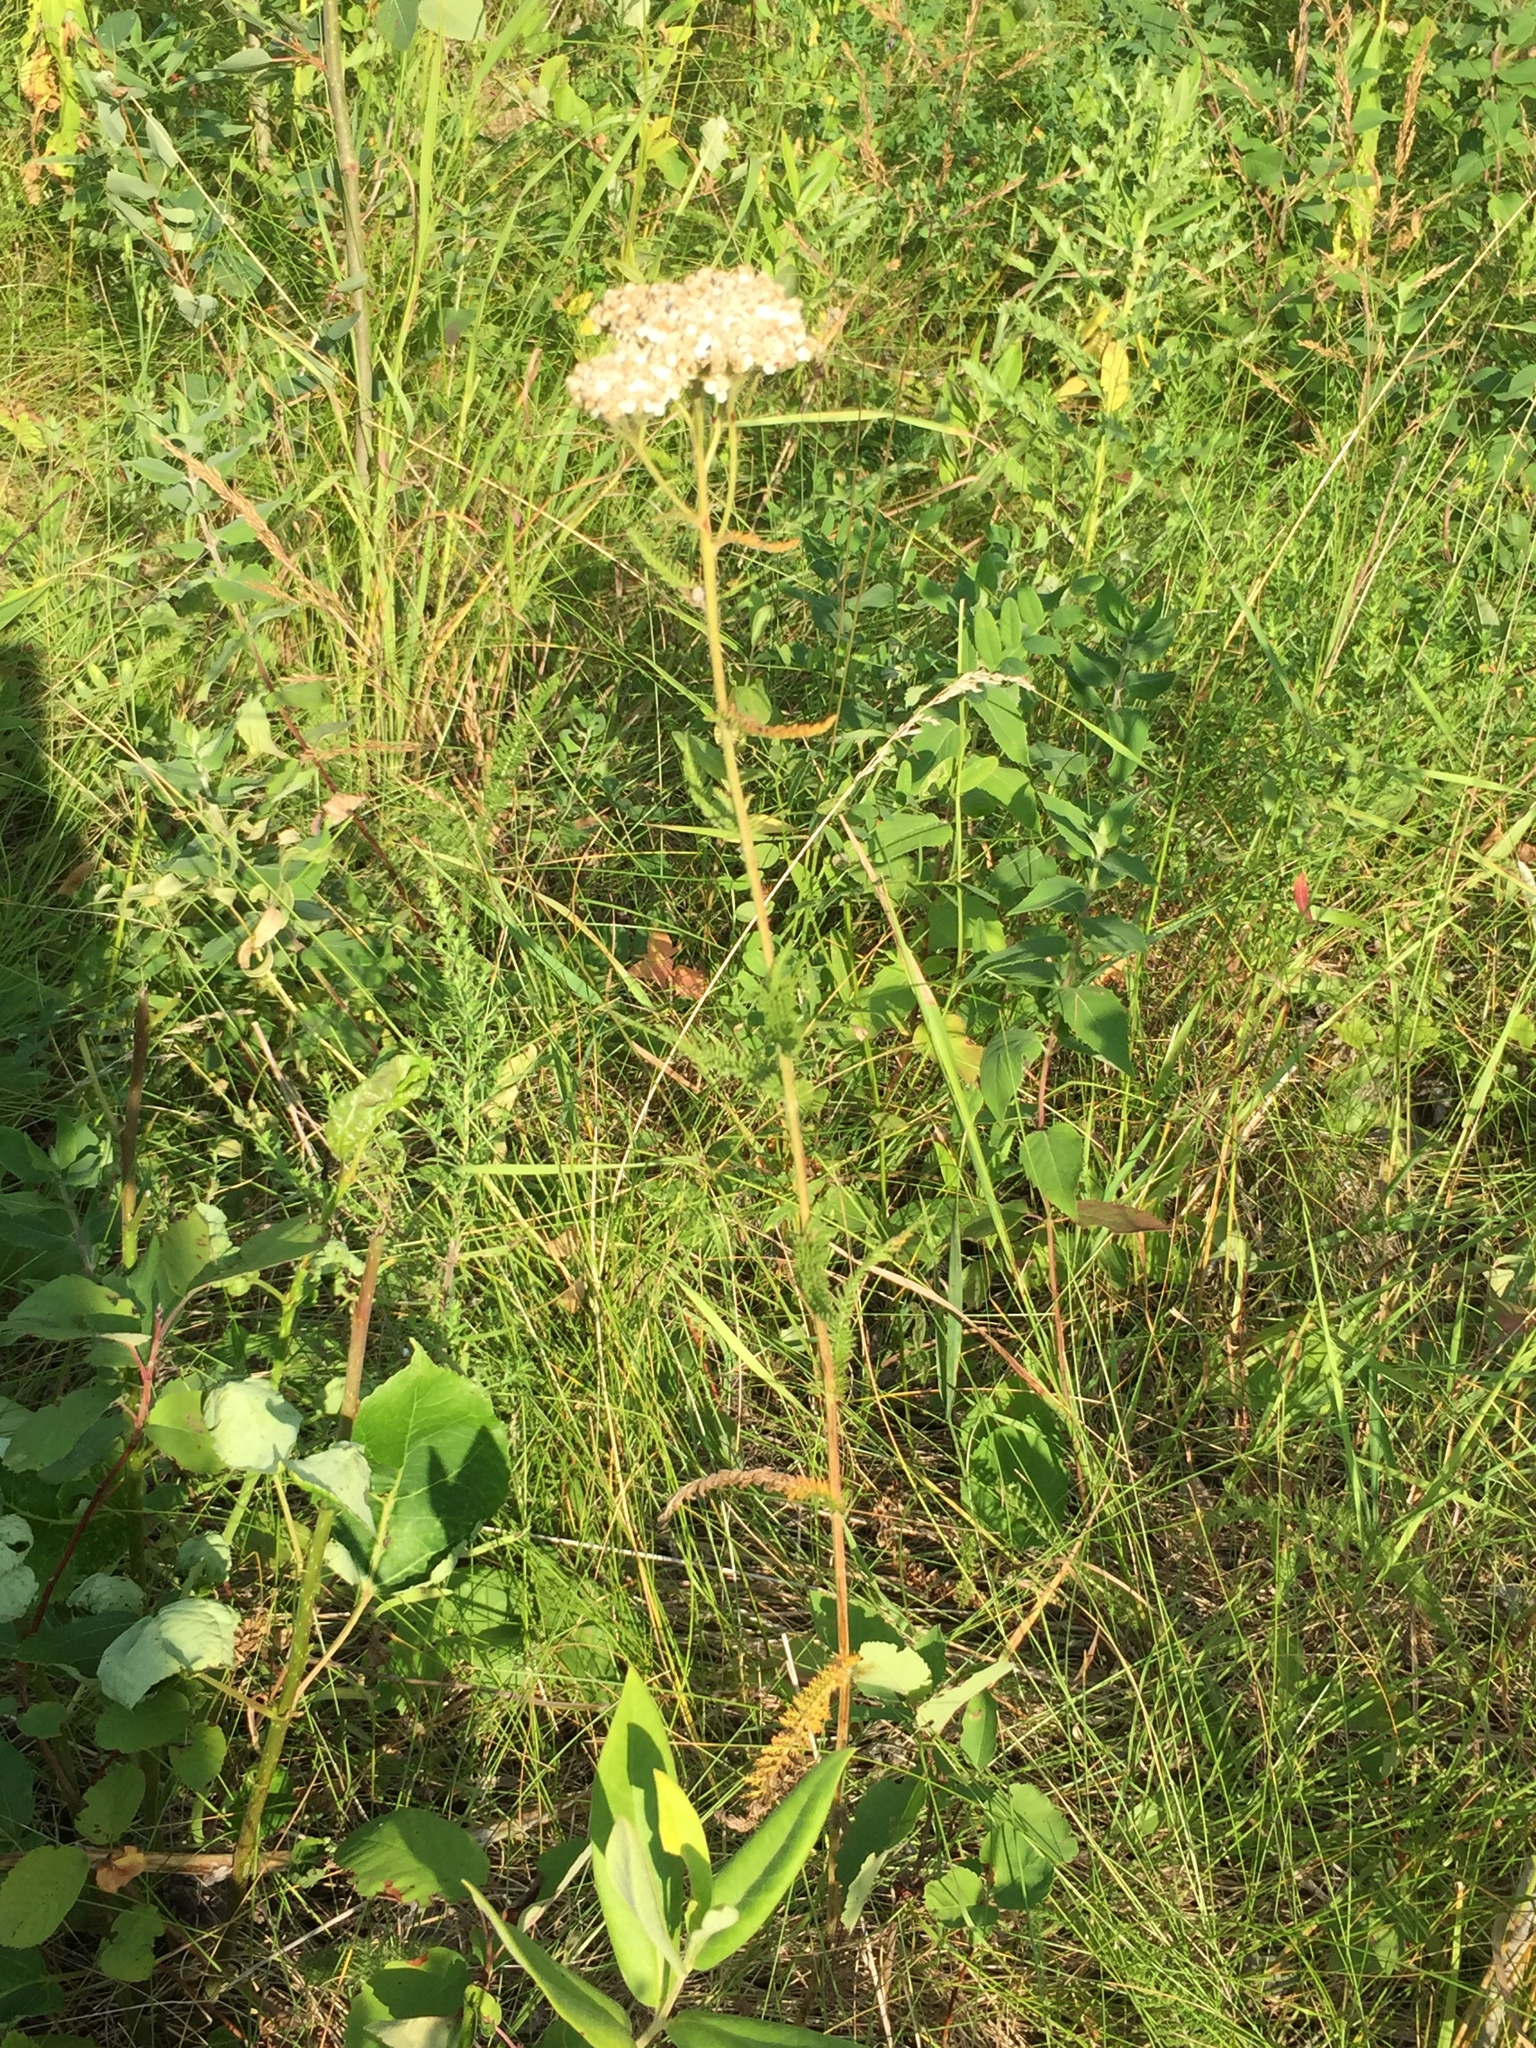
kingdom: Plantae
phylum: Tracheophyta
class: Magnoliopsida
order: Asterales
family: Asteraceae
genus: Achillea
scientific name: Achillea millefolium
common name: Yarrow
